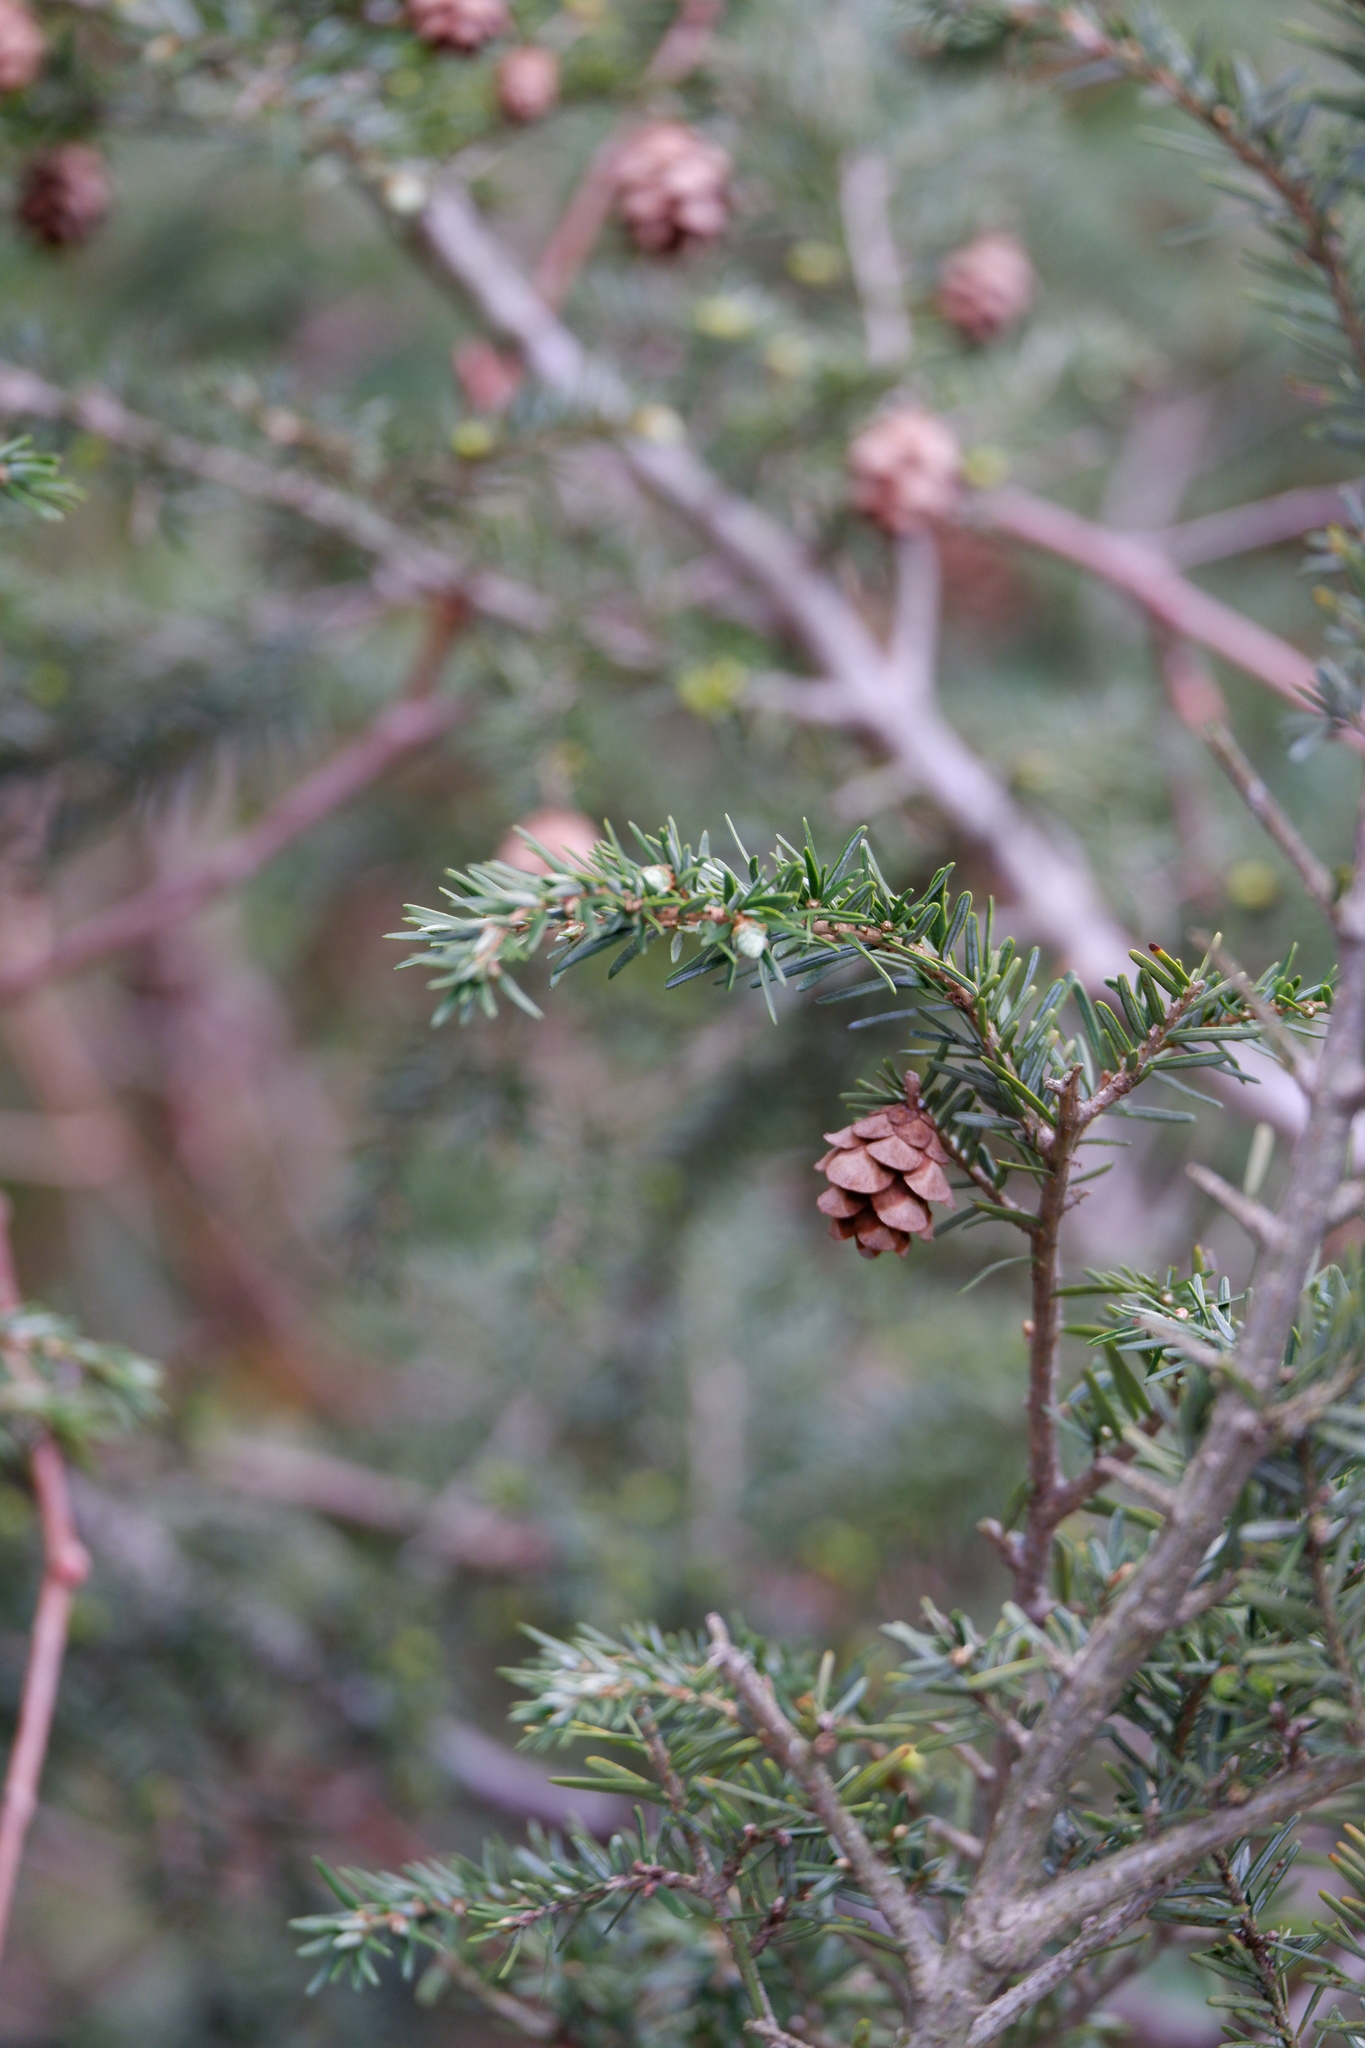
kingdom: Plantae
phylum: Tracheophyta
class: Pinopsida
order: Pinales
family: Pinaceae
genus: Tsuga
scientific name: Tsuga canadensis
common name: Eastern hemlock
